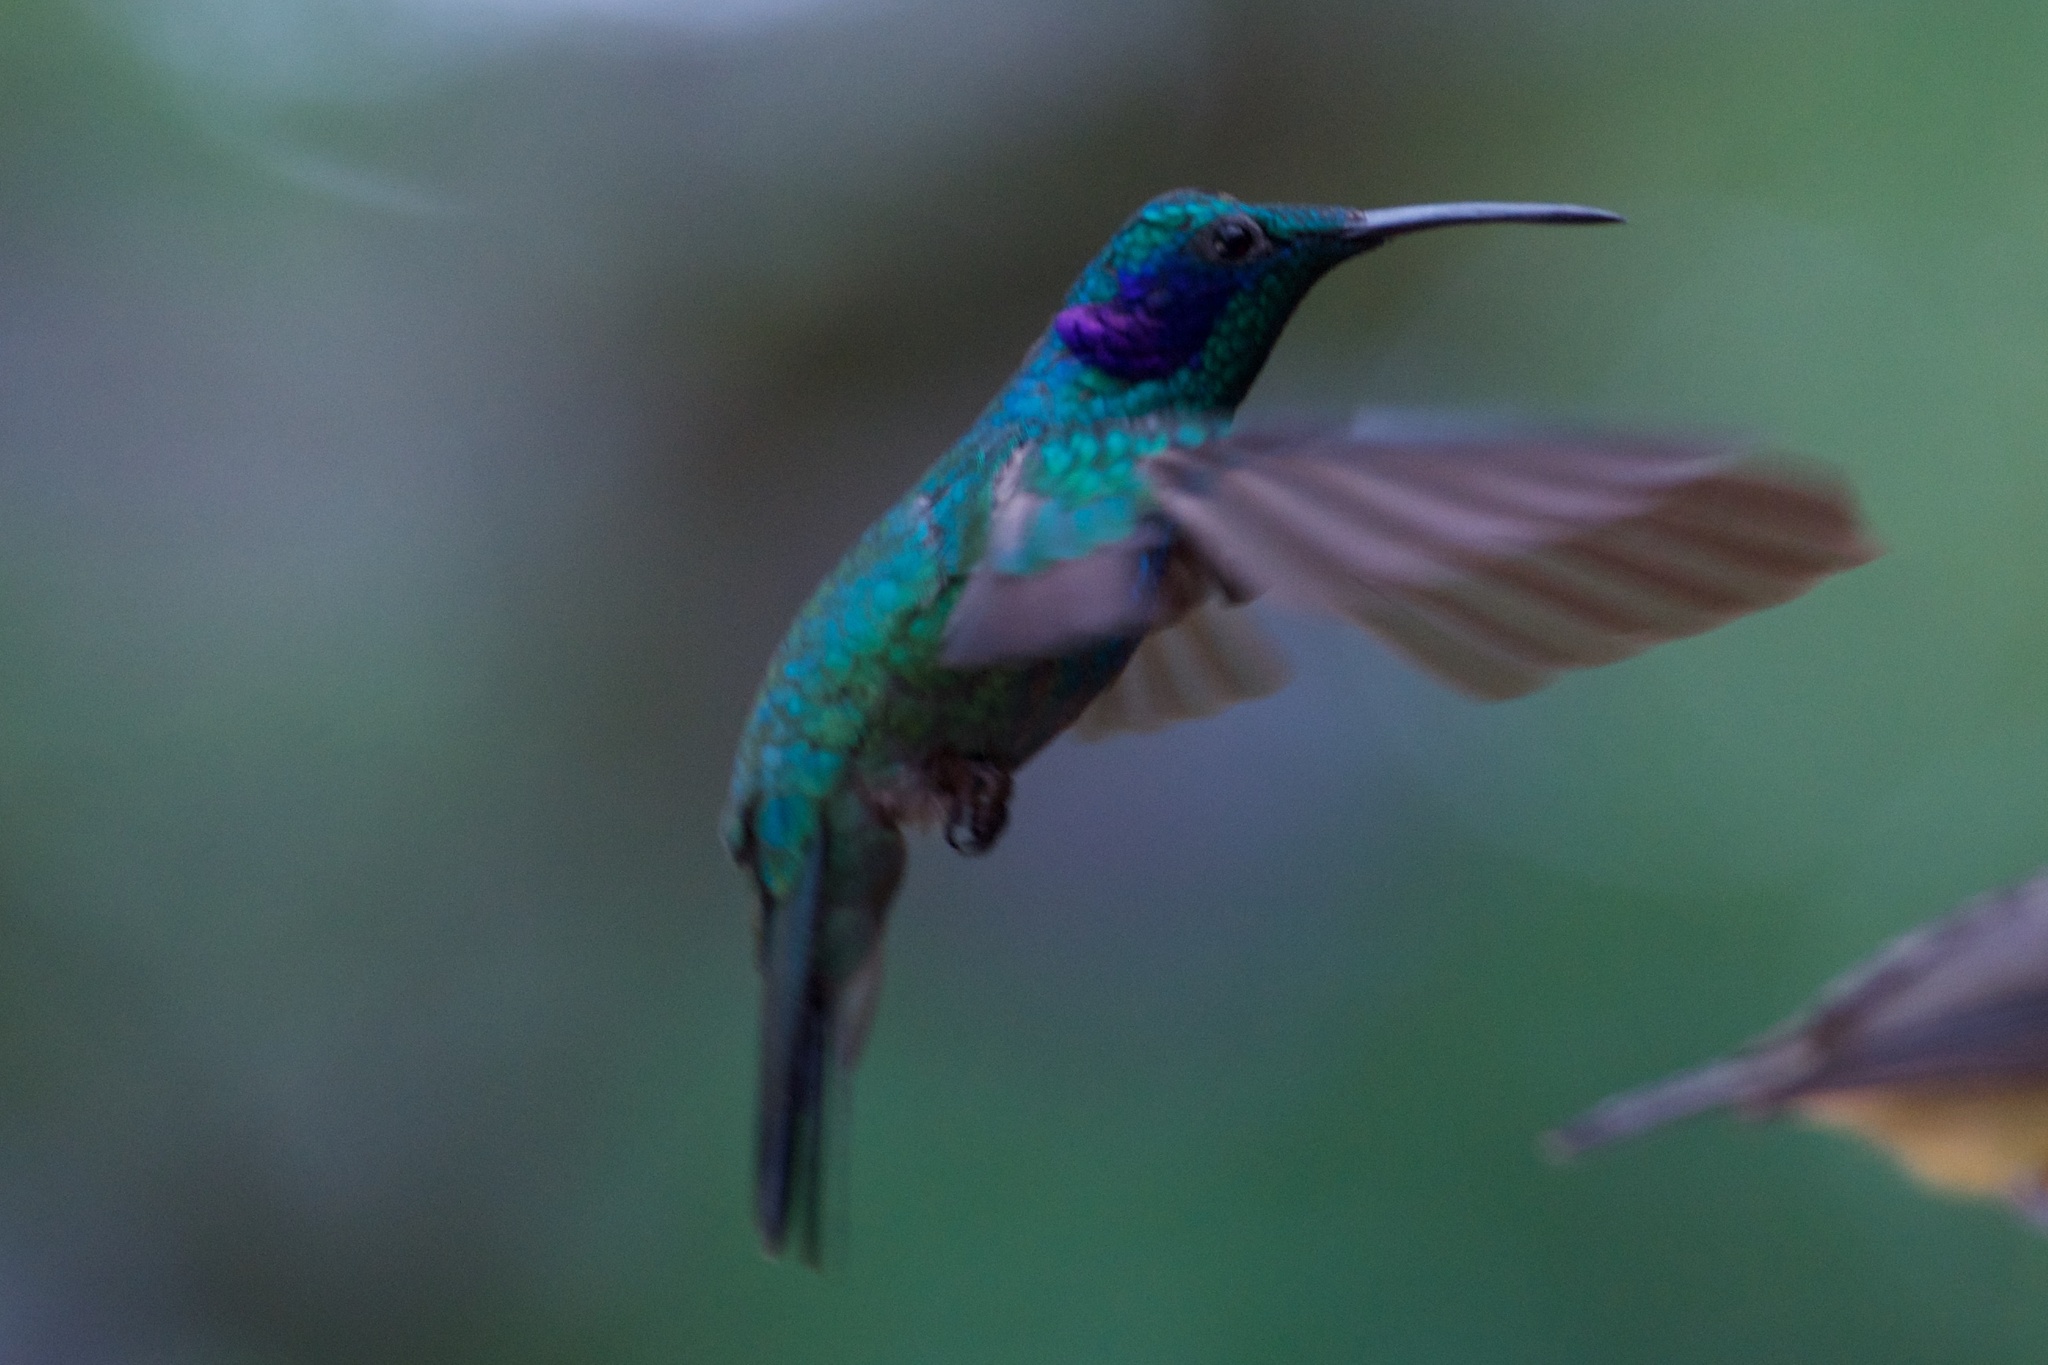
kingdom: Animalia
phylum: Chordata
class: Aves
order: Apodiformes
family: Trochilidae
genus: Colibri
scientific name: Colibri cyanotus
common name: Lesser violetear
